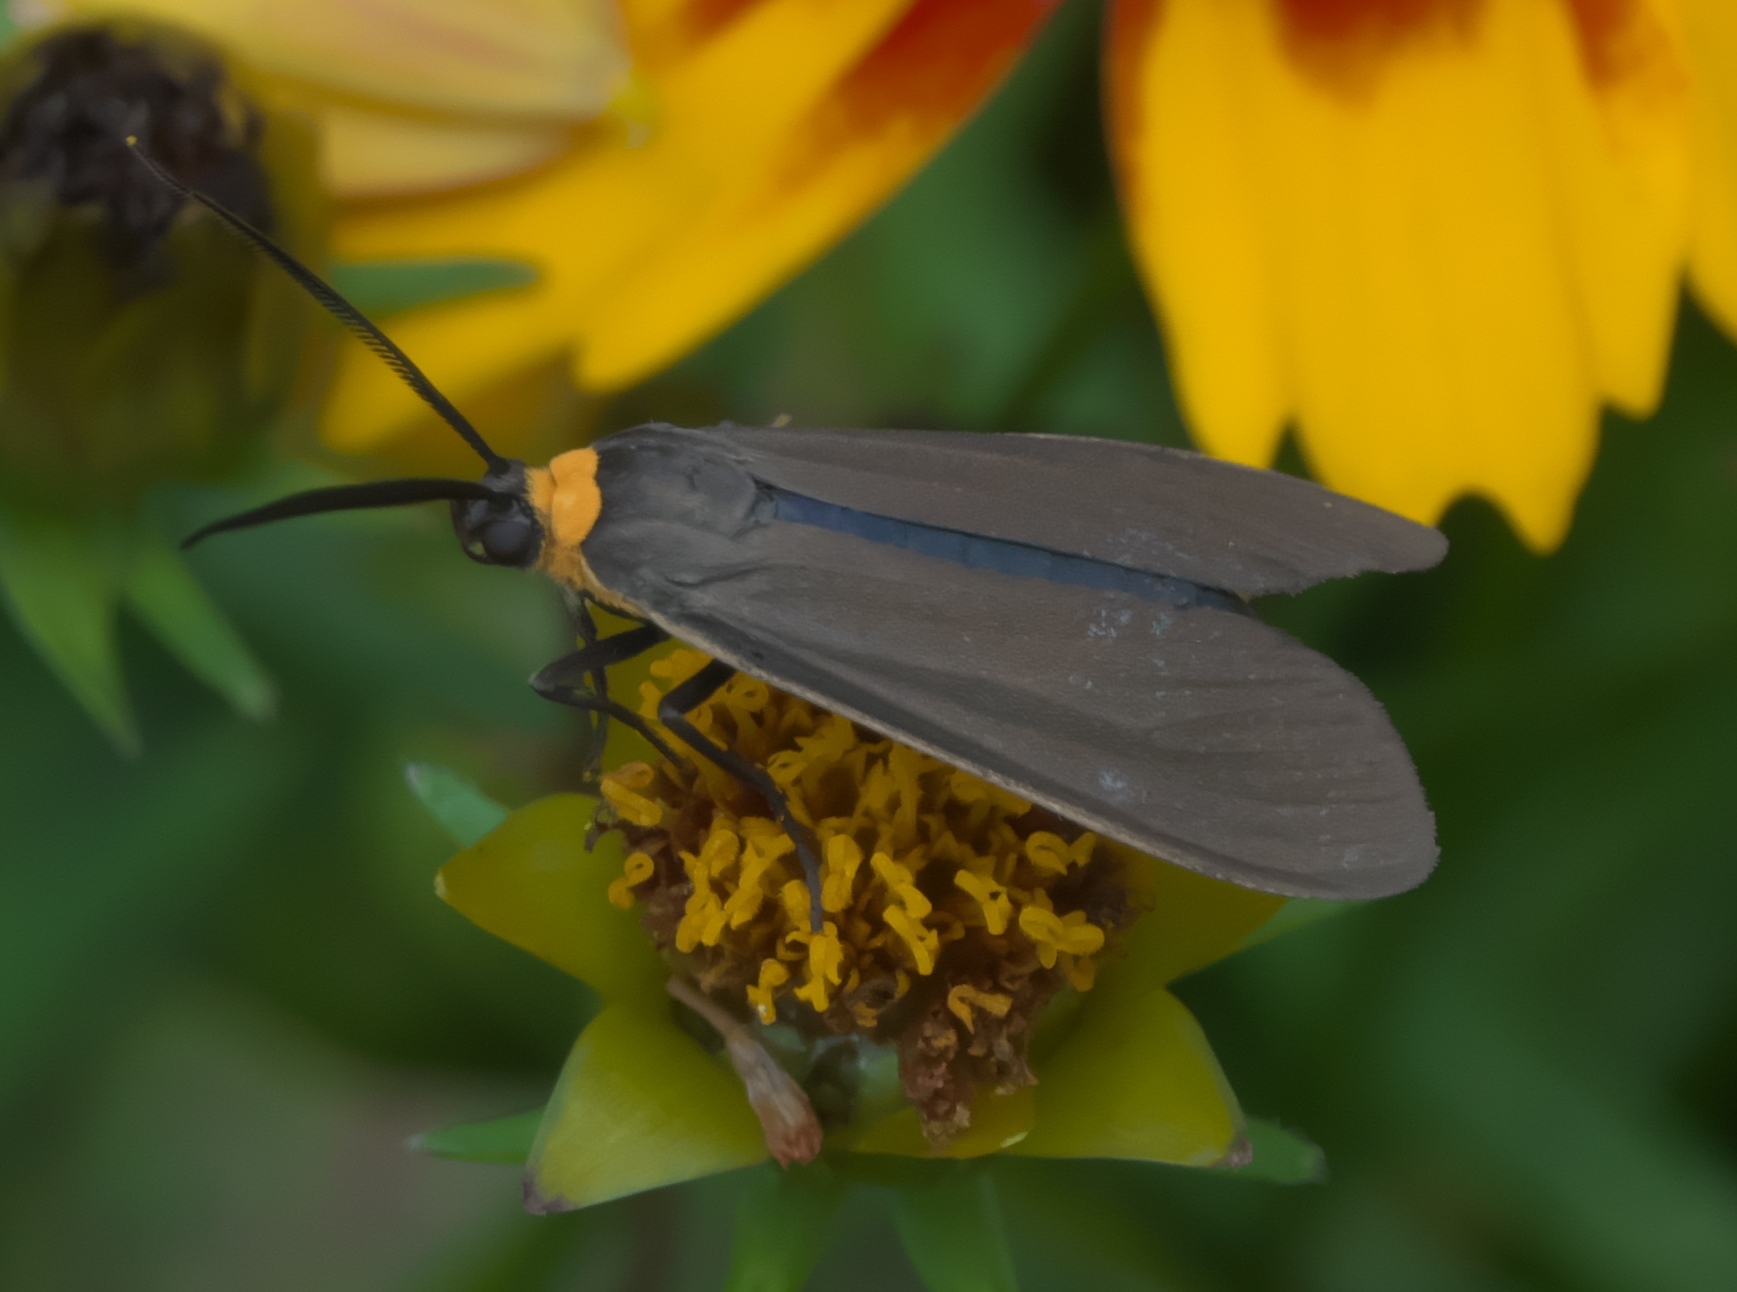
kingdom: Animalia
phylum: Arthropoda
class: Insecta
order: Lepidoptera
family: Erebidae
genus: Cisseps
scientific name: Cisseps fulvicollis
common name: Yellow-collared scape moth
